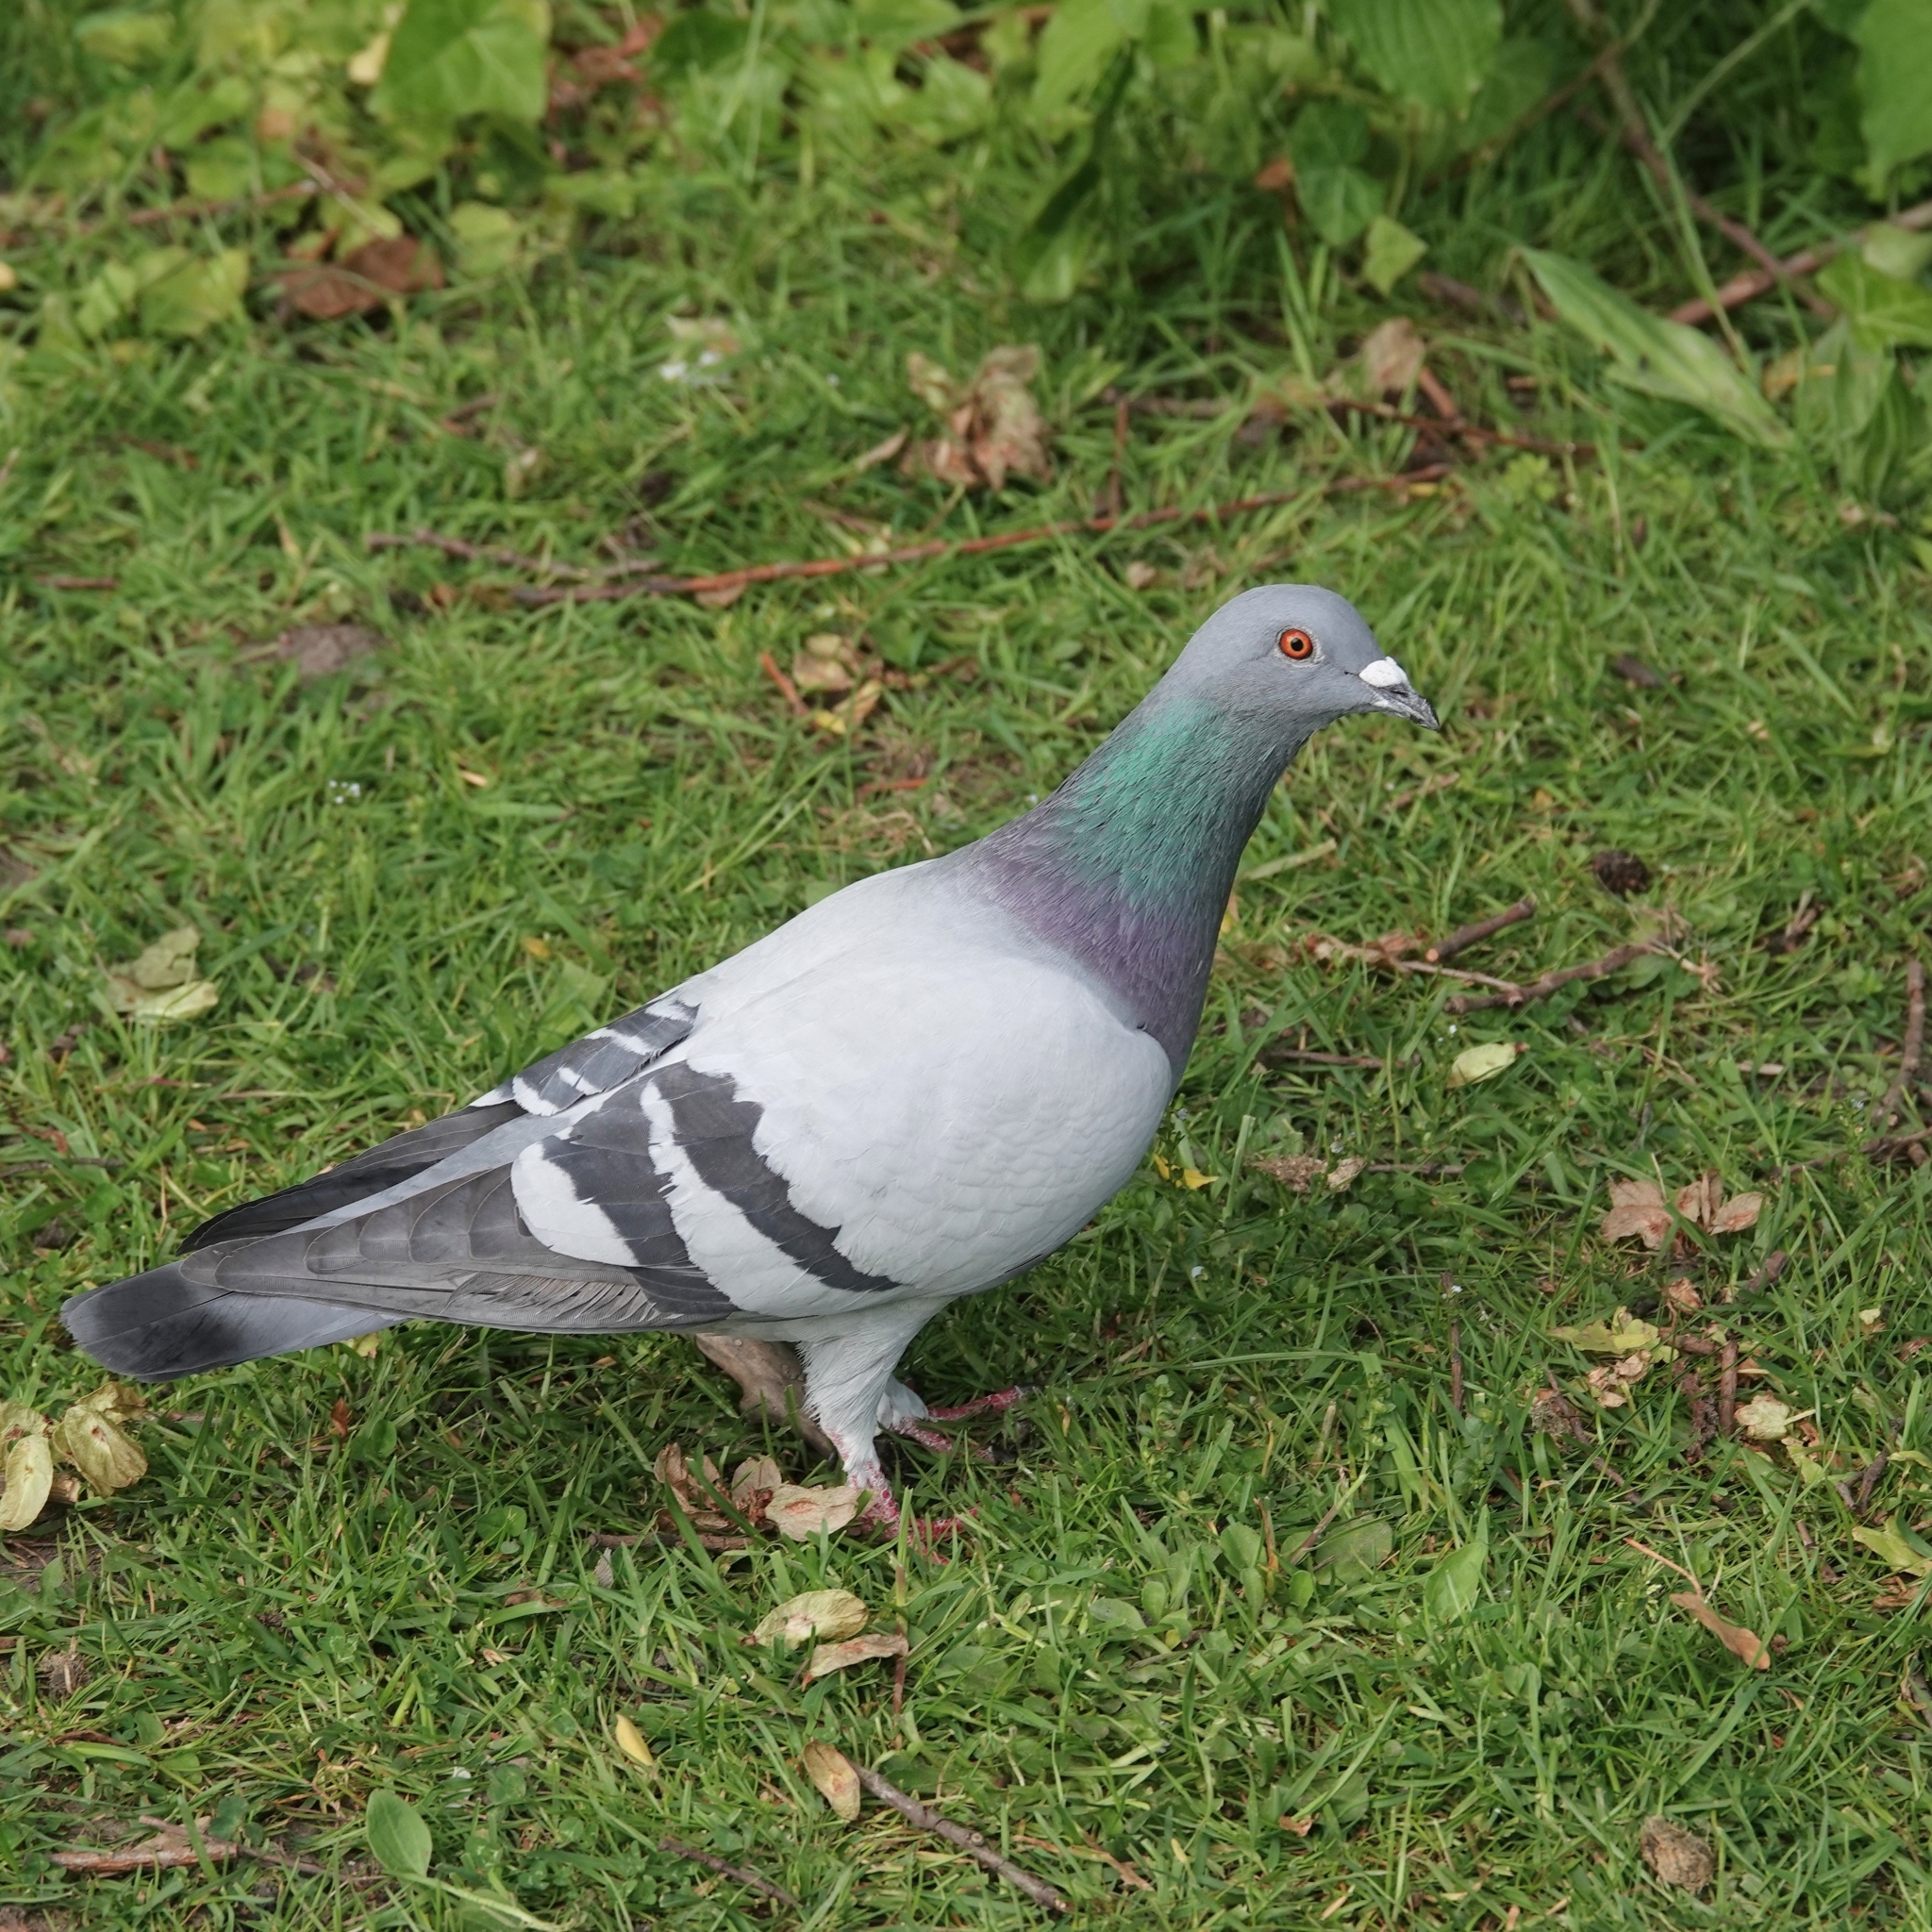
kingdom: Animalia
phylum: Chordata
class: Aves
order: Columbiformes
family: Columbidae
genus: Columba
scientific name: Columba livia
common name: Rock pigeon
